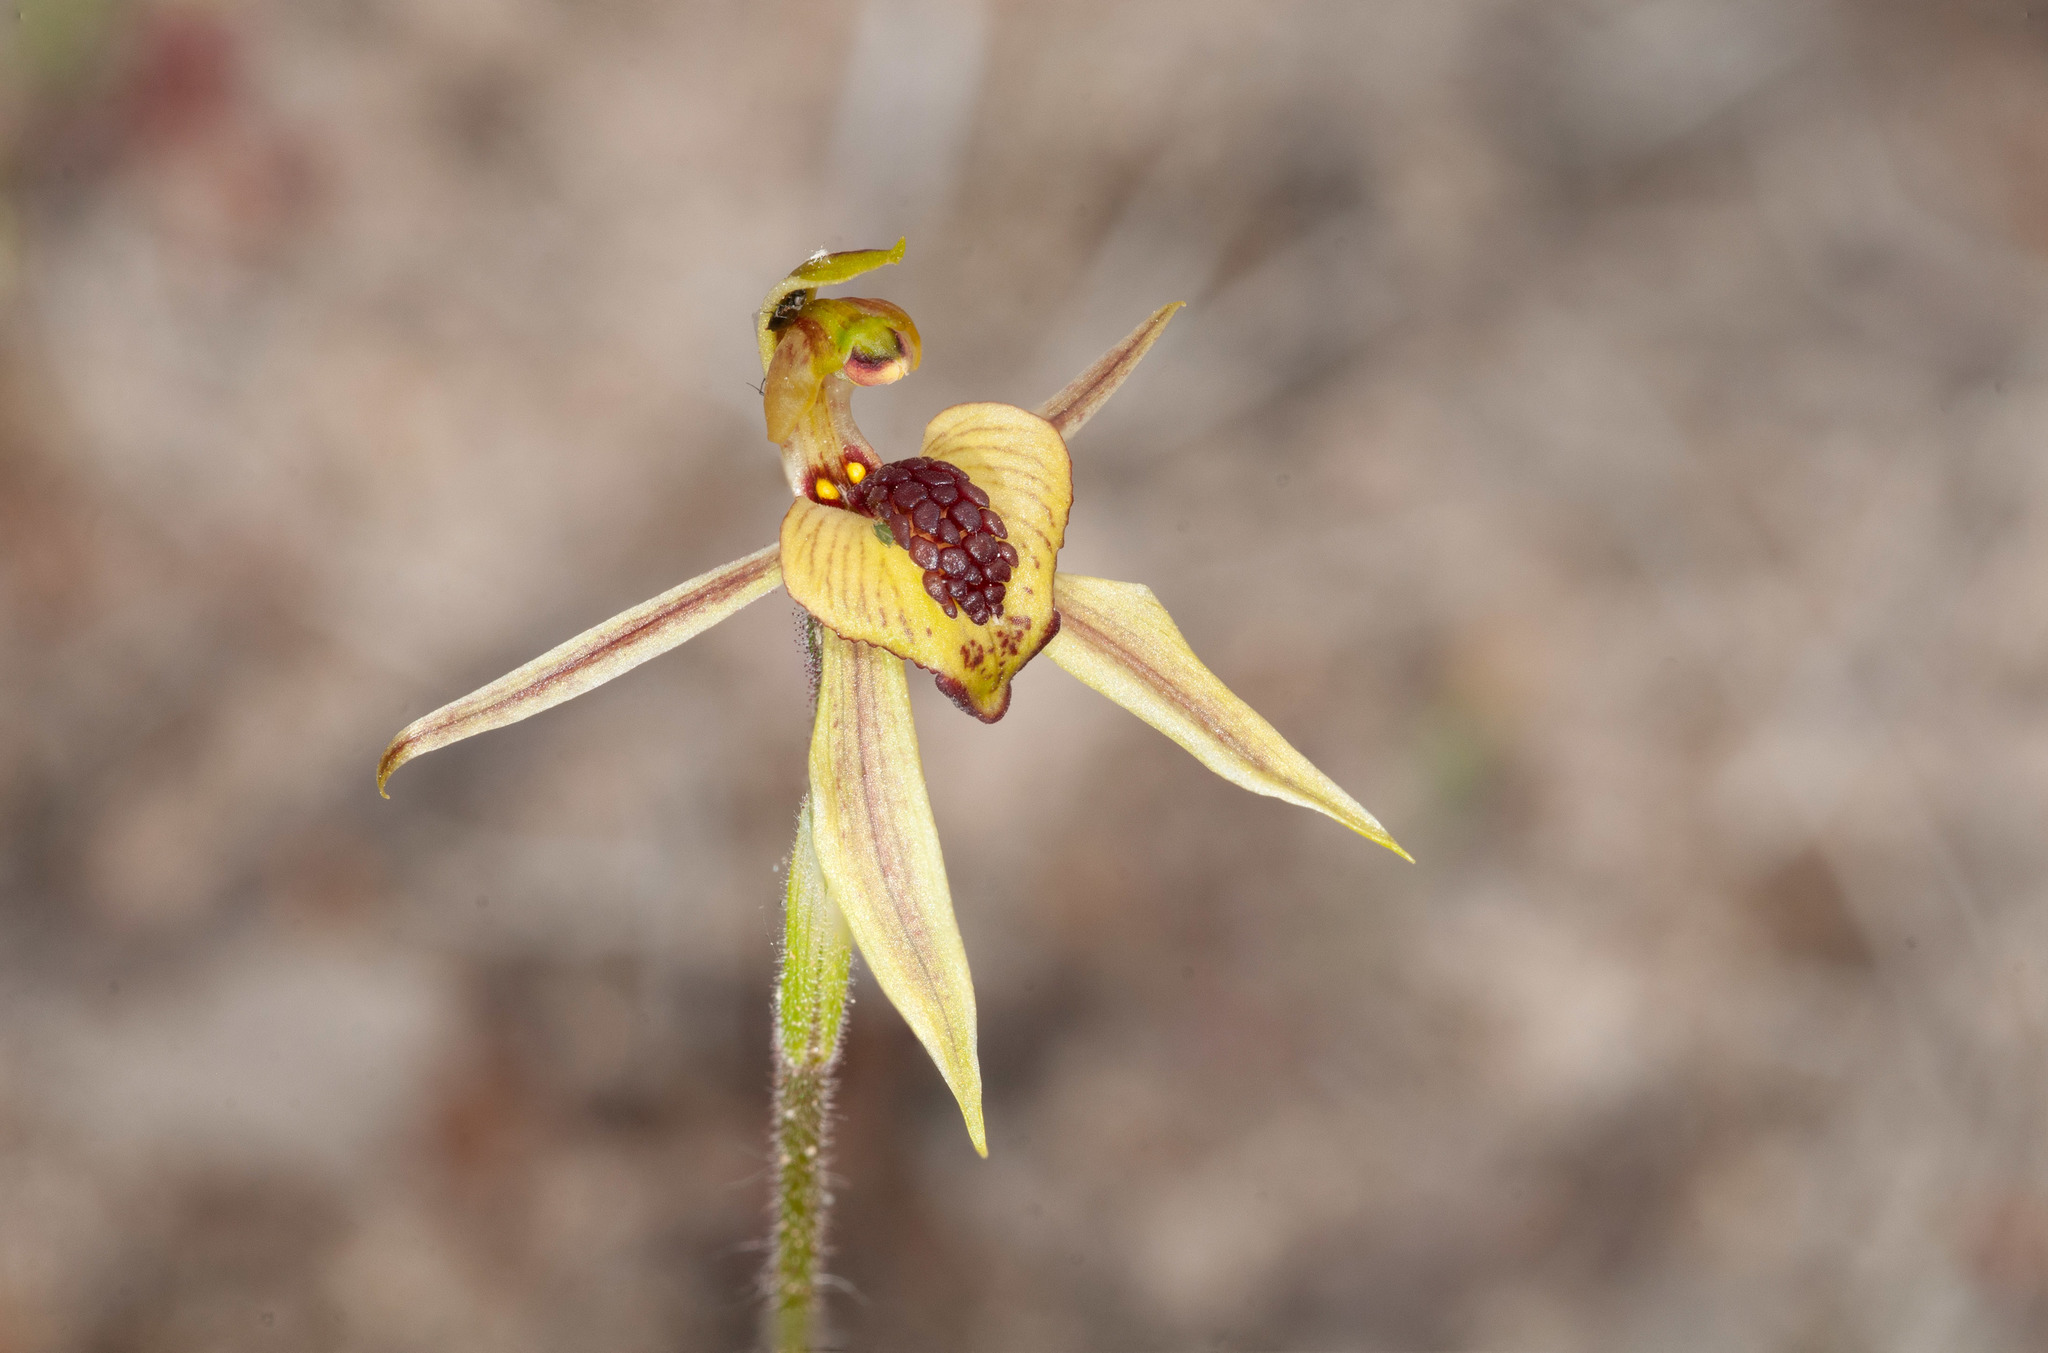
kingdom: Plantae
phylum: Tracheophyta
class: Liliopsida
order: Asparagales
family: Orchidaceae
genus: Caladenia
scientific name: Caladenia cardiochila
